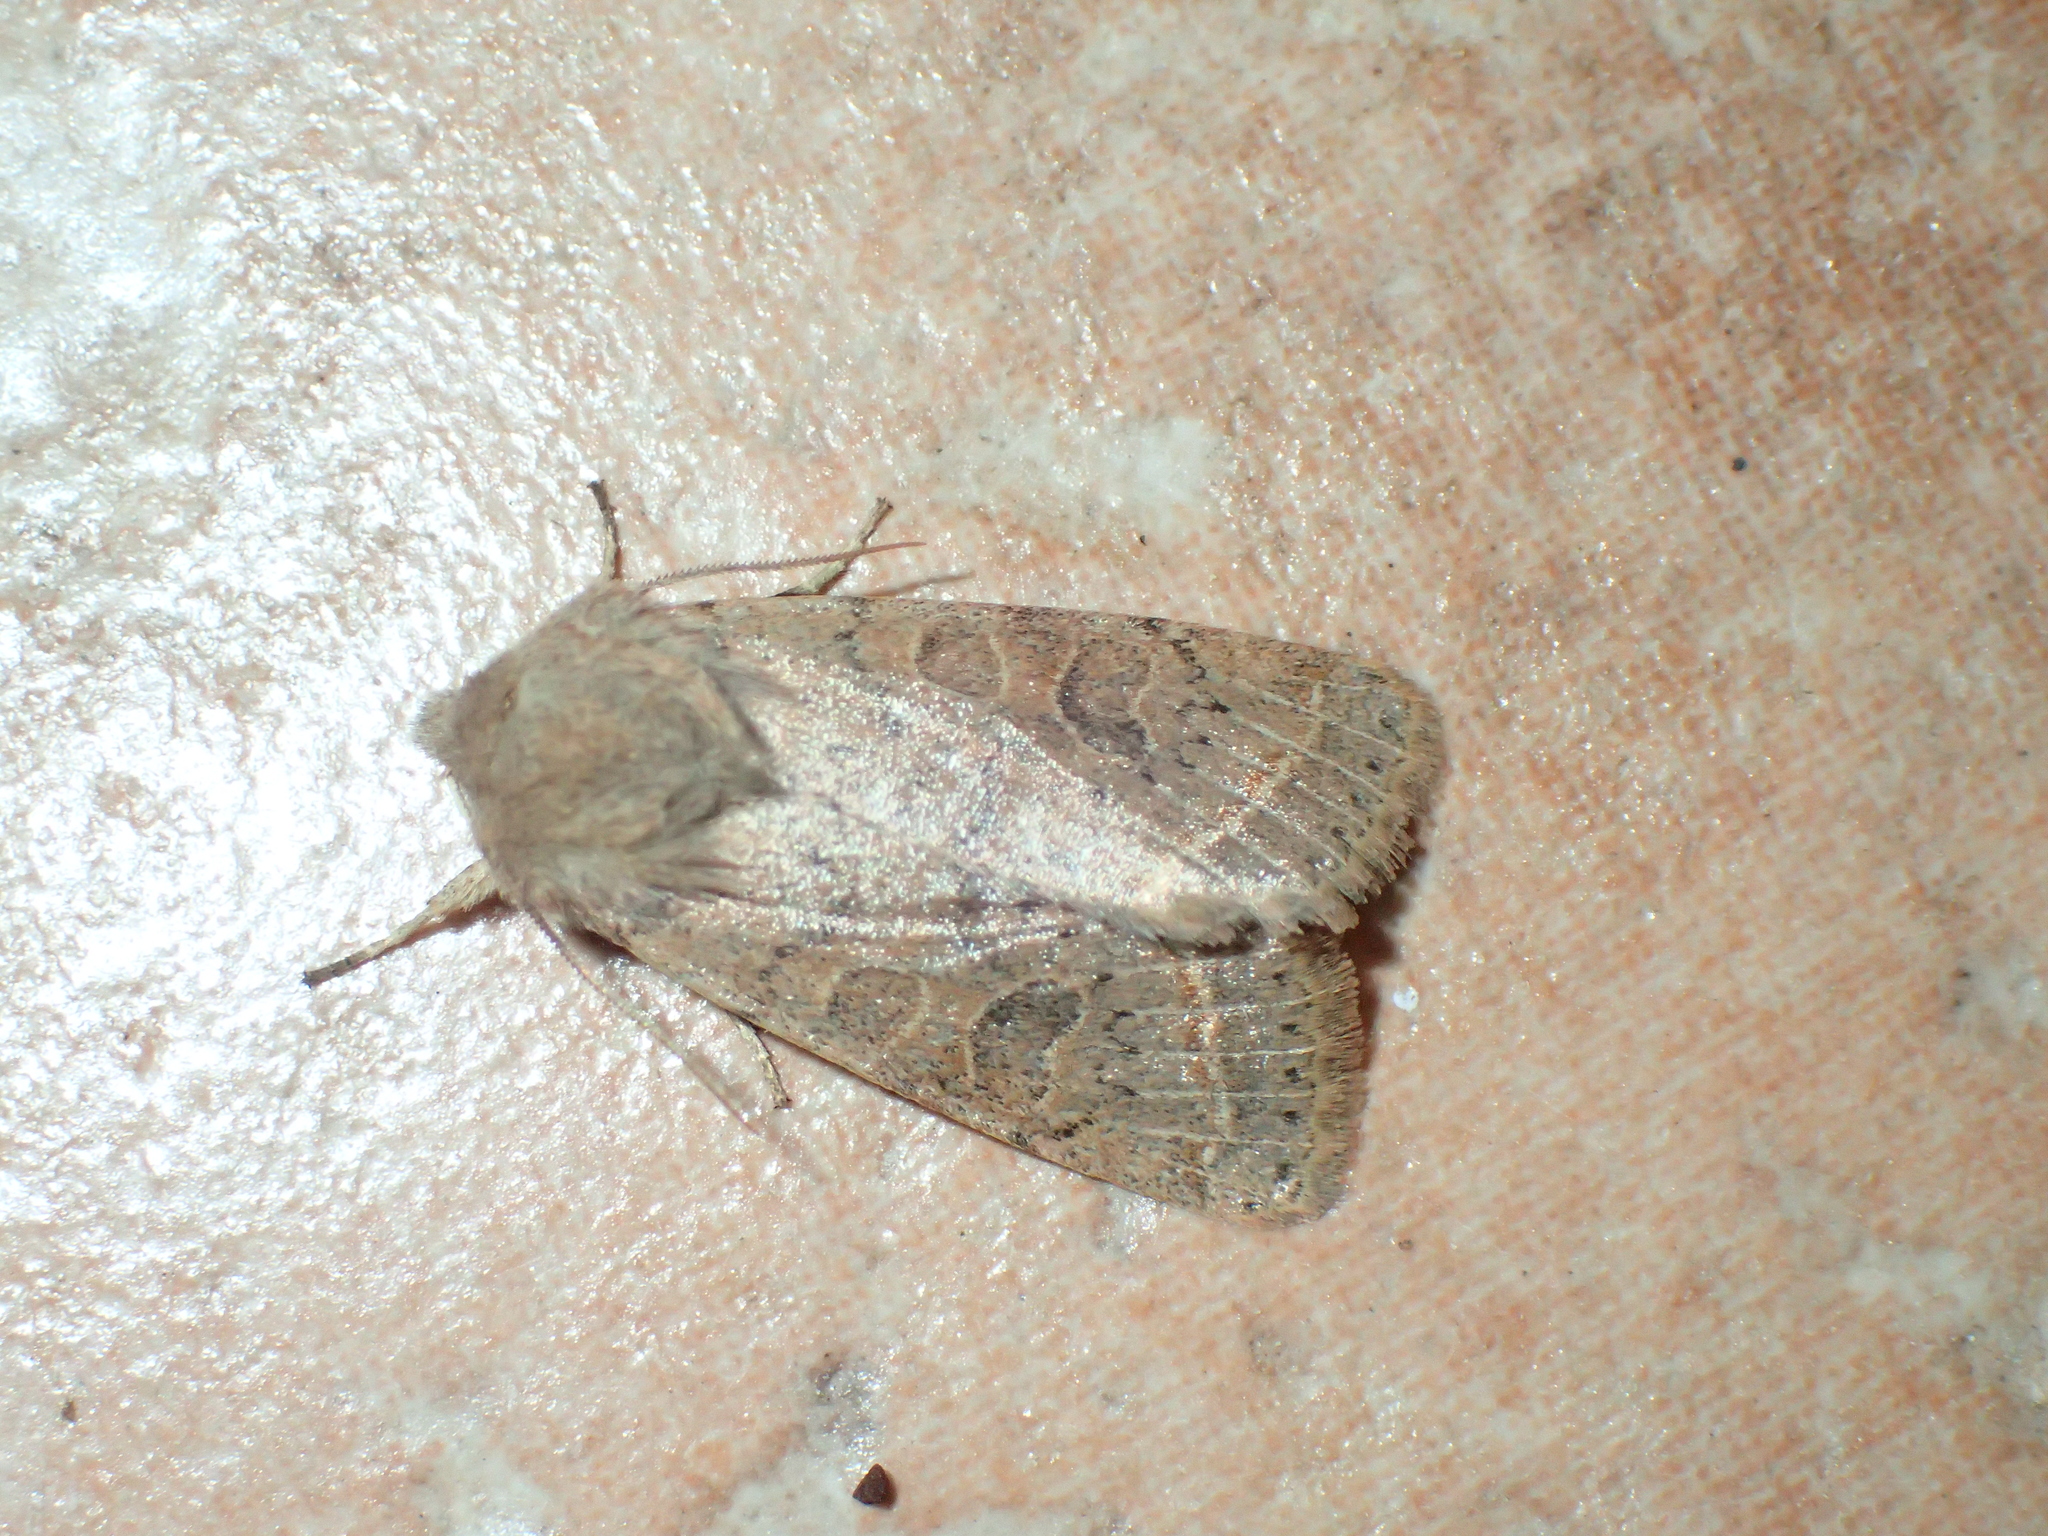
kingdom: Animalia
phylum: Arthropoda
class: Insecta
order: Lepidoptera
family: Noctuidae
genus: Orthosia
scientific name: Orthosia cerasi
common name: Common quaker
